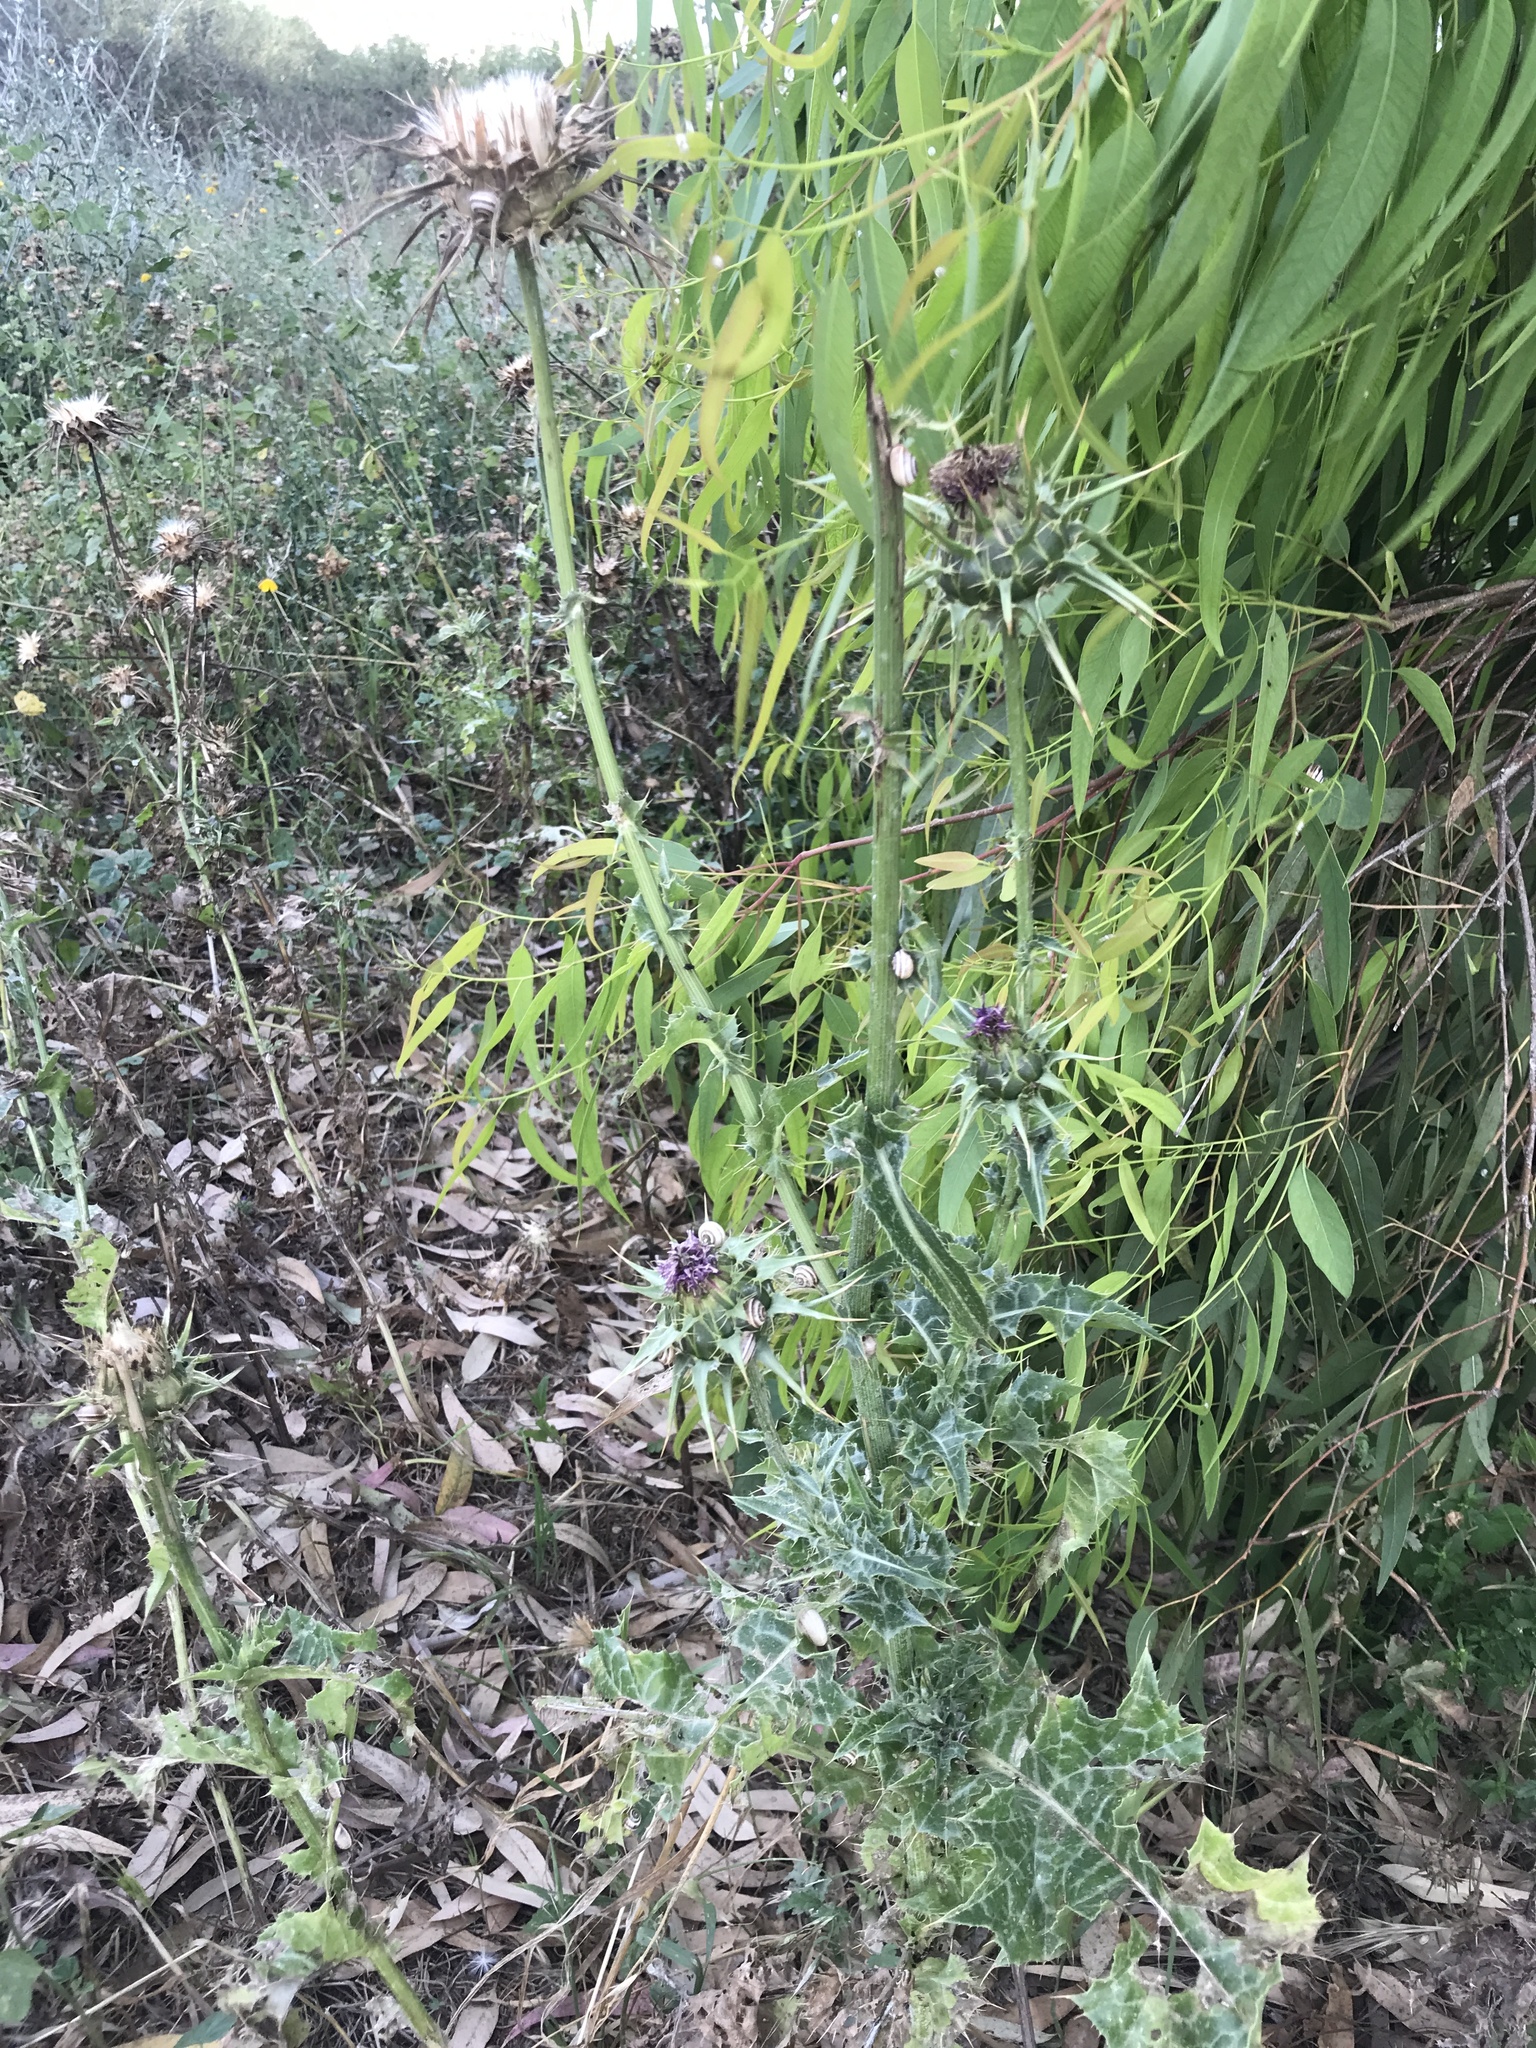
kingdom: Plantae
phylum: Tracheophyta
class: Magnoliopsida
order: Asterales
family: Asteraceae
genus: Silybum
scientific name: Silybum marianum
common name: Milk thistle
